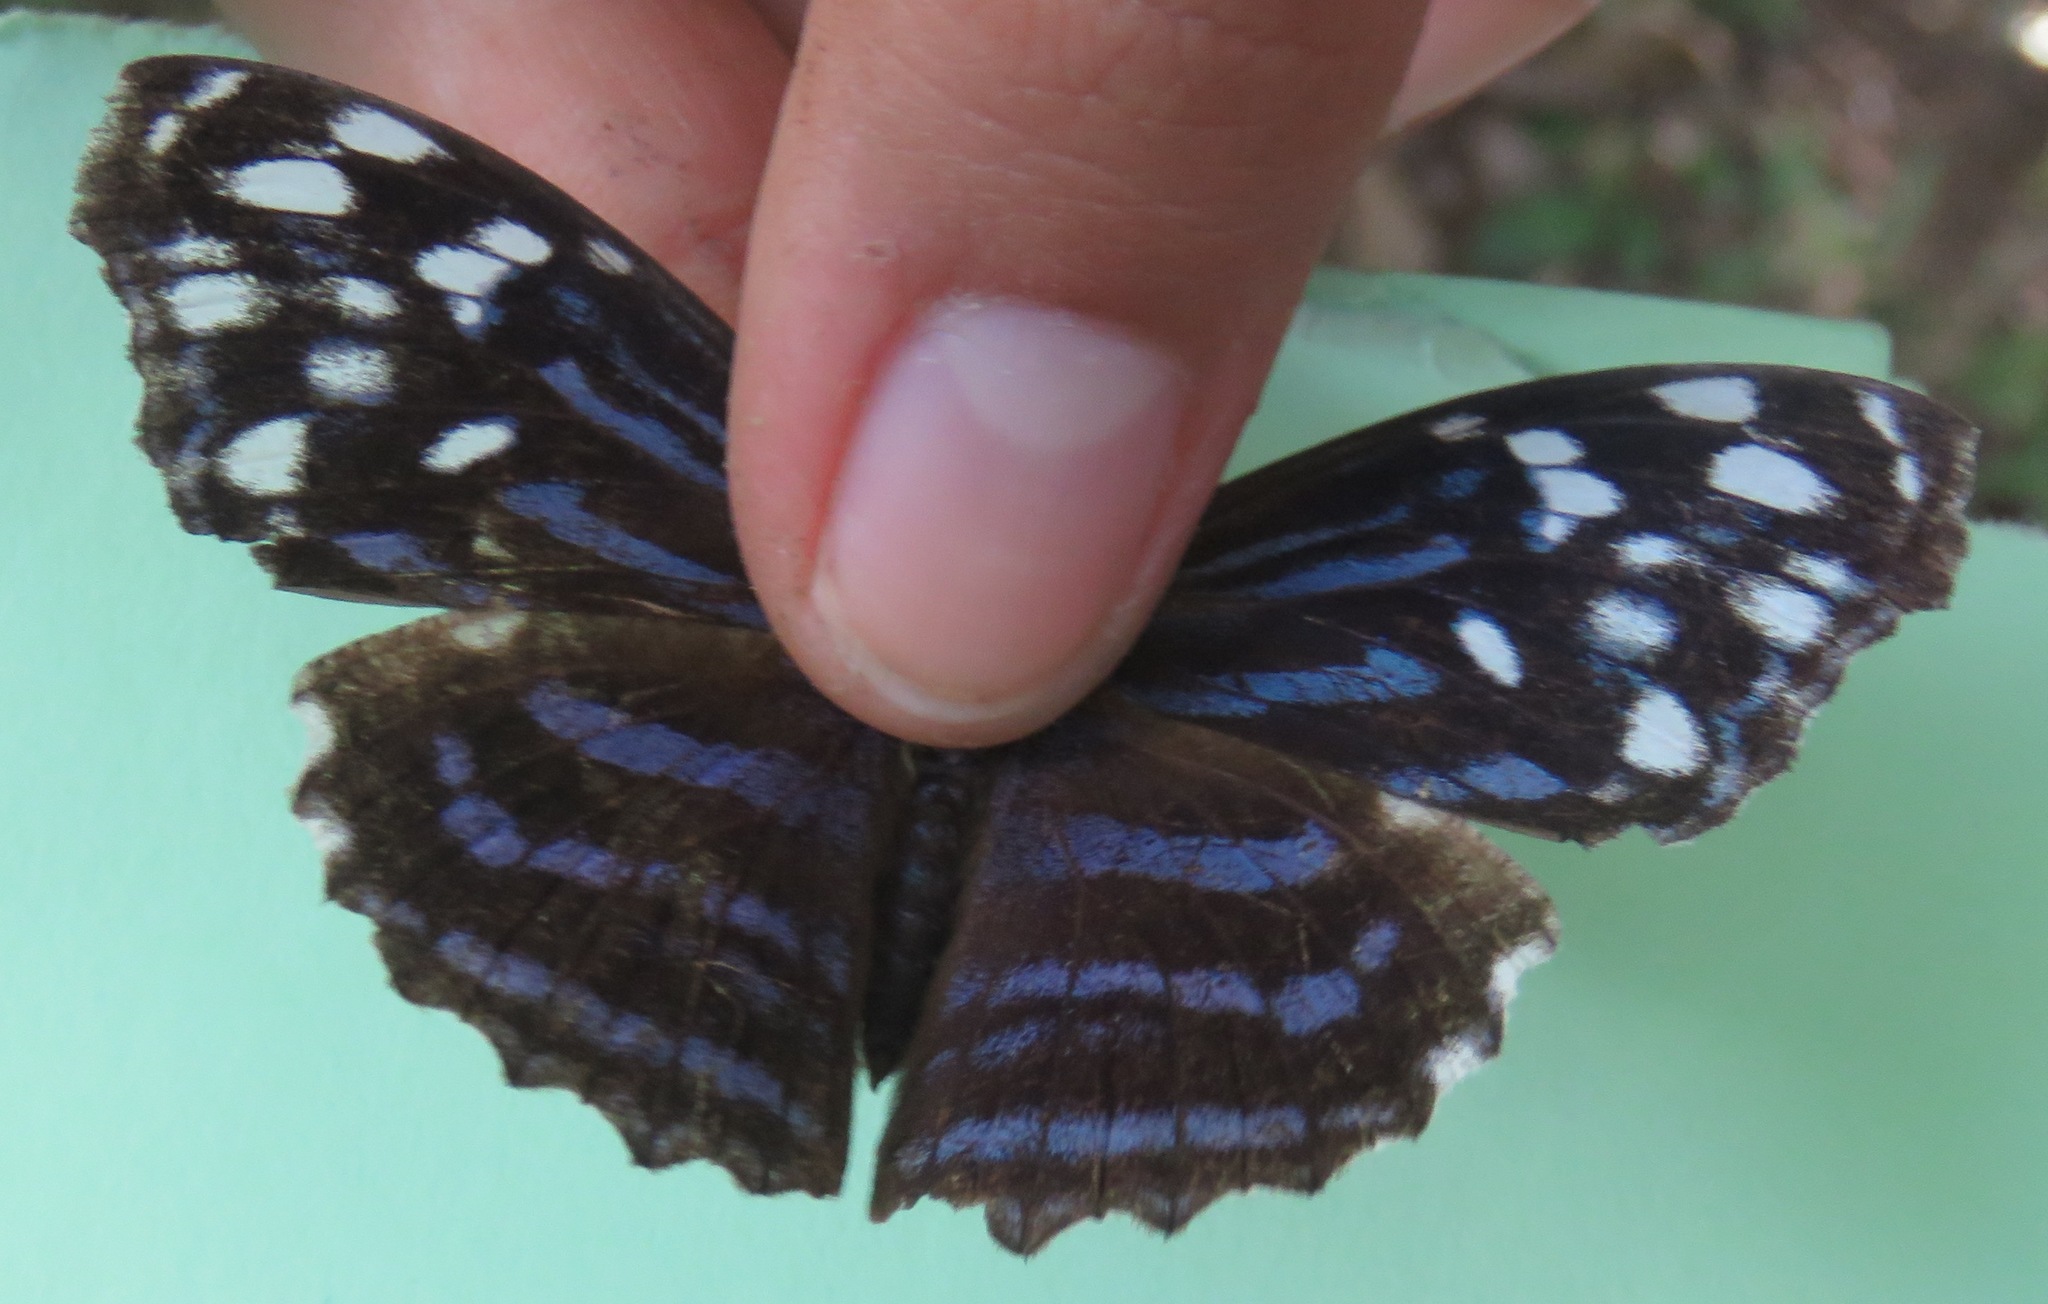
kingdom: Animalia
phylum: Arthropoda
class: Insecta
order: Lepidoptera
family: Nymphalidae
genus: Myscelia
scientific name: Myscelia ethusa
